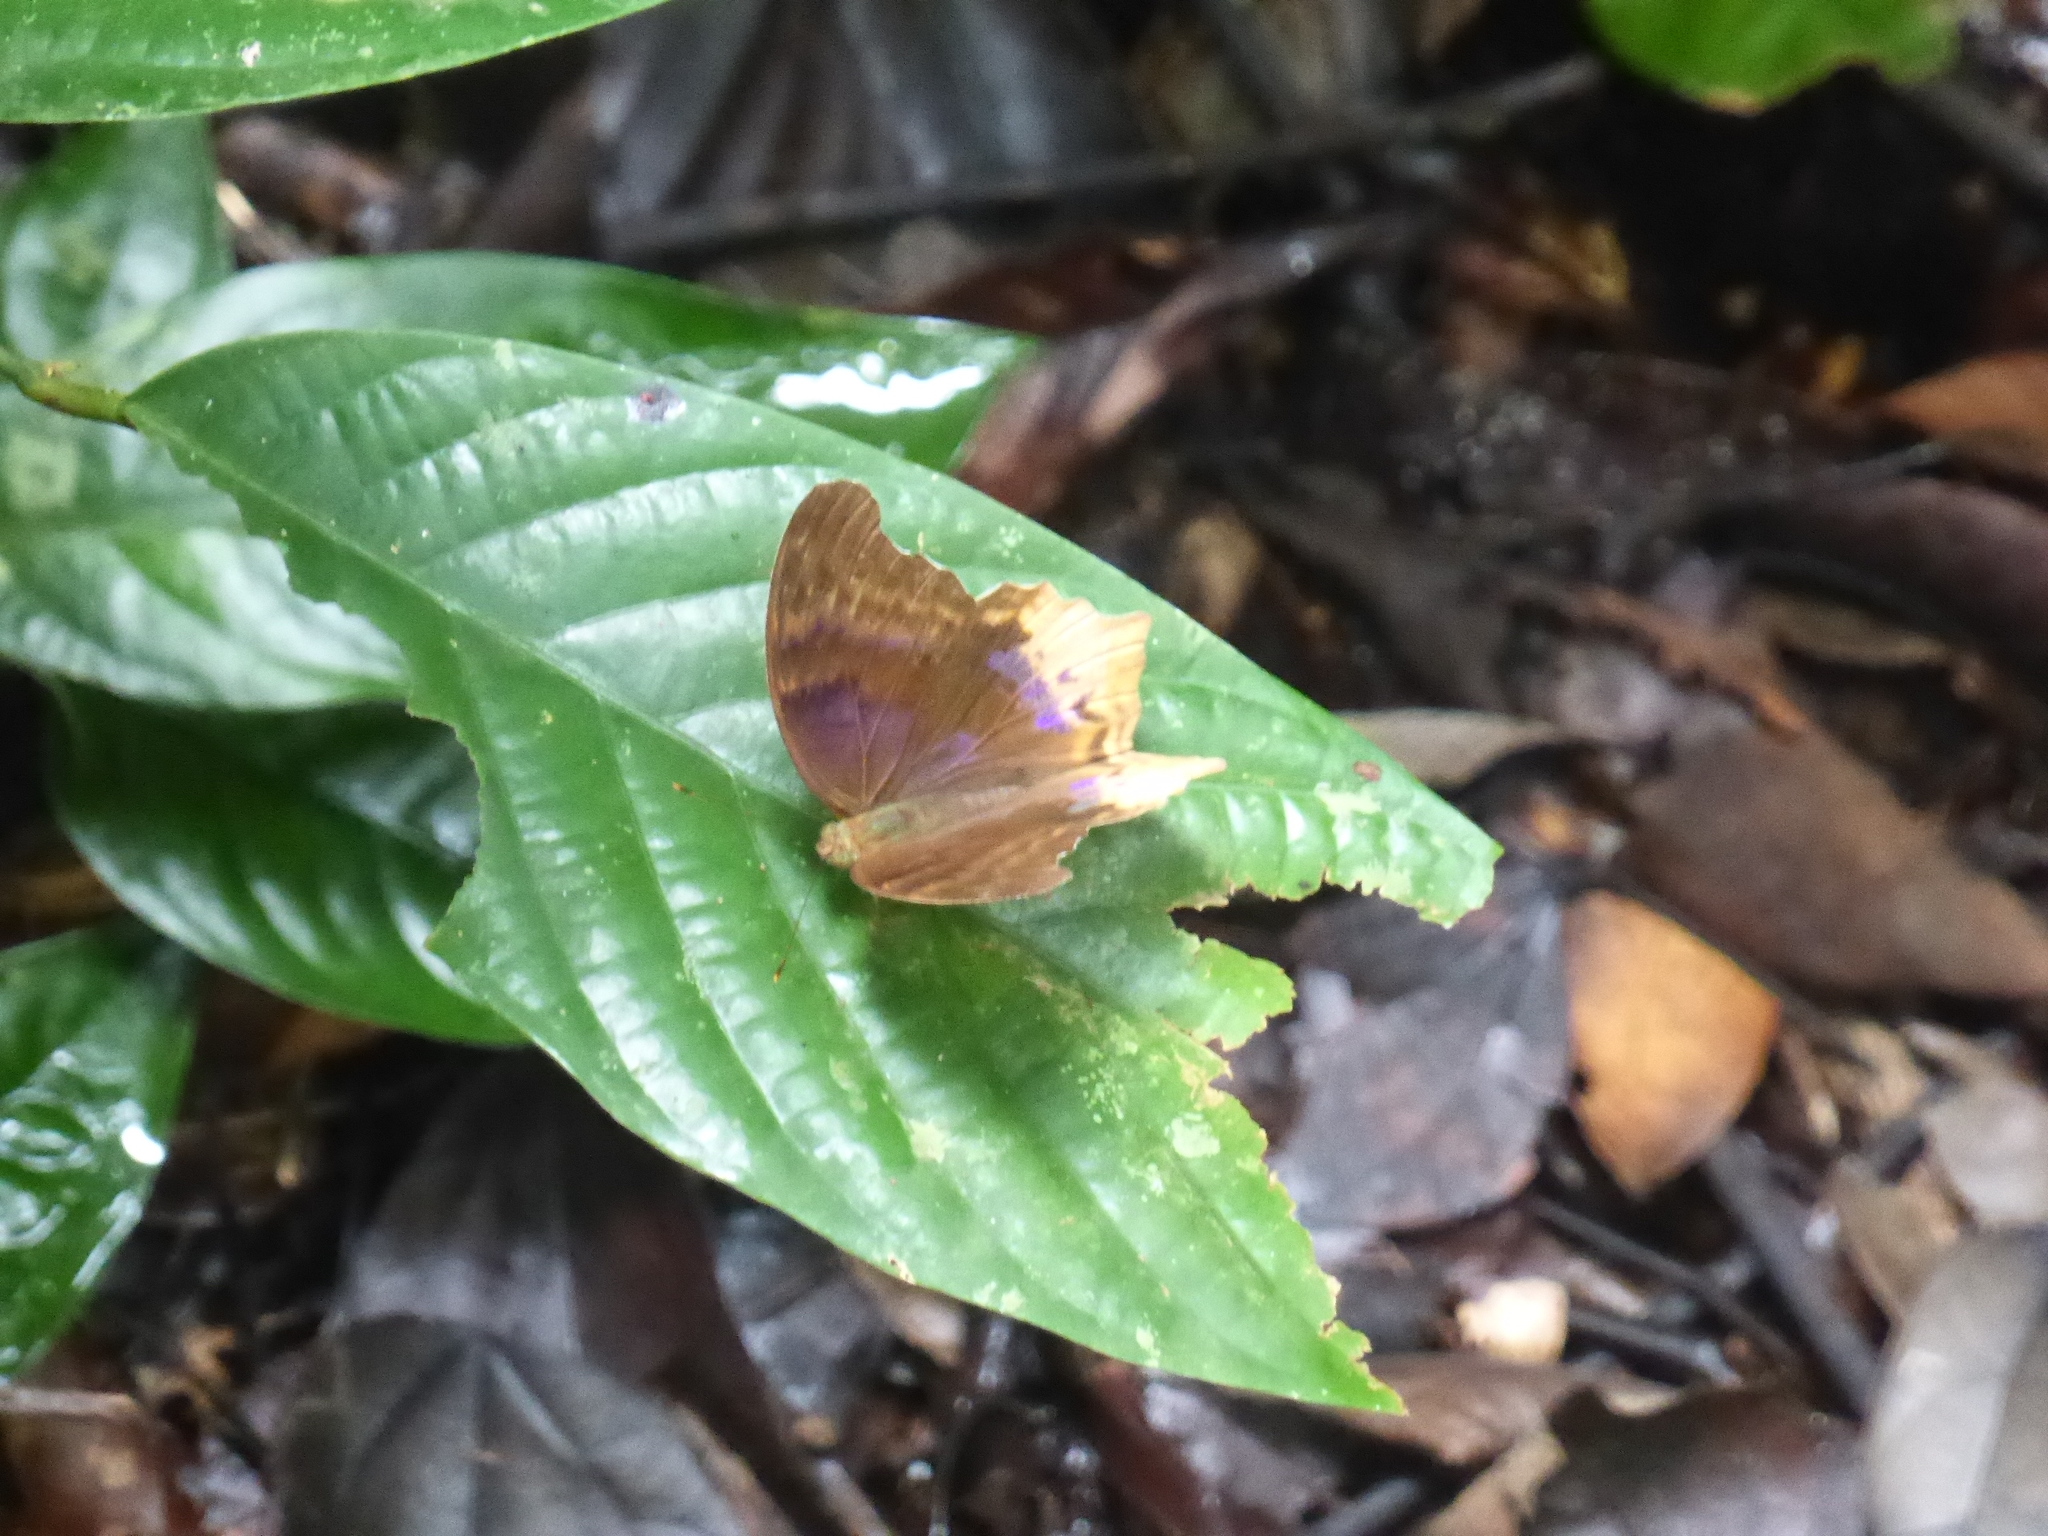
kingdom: Animalia
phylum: Arthropoda
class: Insecta
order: Lepidoptera
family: Nymphalidae
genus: Terinos
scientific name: Terinos clarissa
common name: Malayan assyrian
